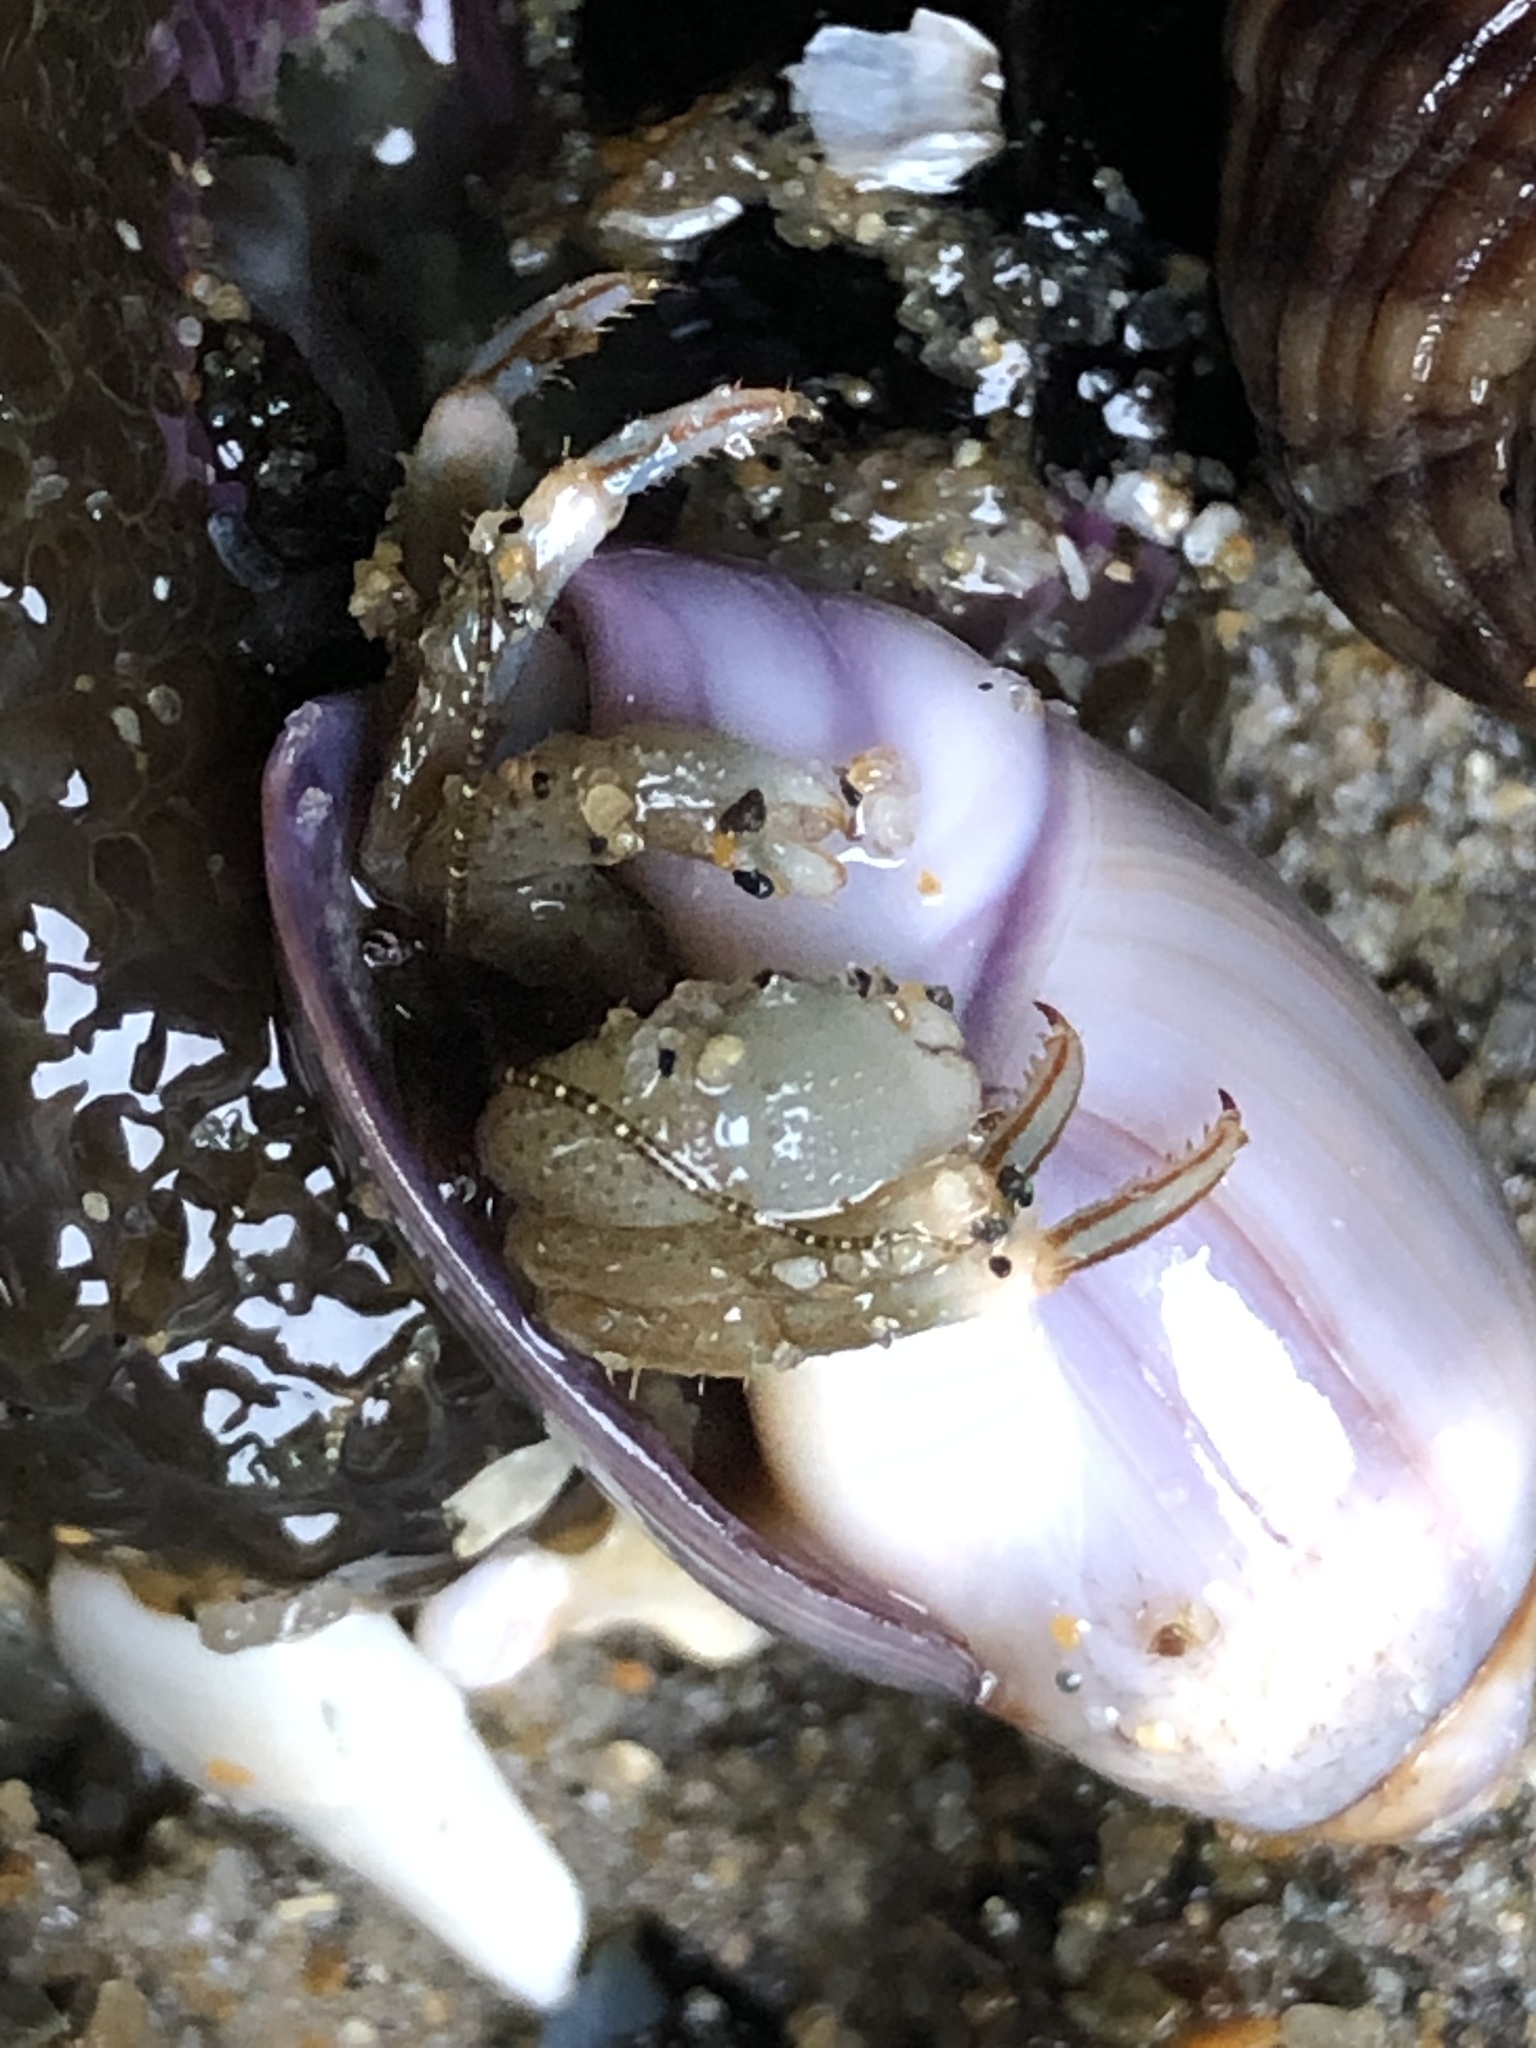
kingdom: Animalia
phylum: Arthropoda
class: Malacostraca
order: Decapoda
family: Paguridae
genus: Pagurus
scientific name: Pagurus venturensis
